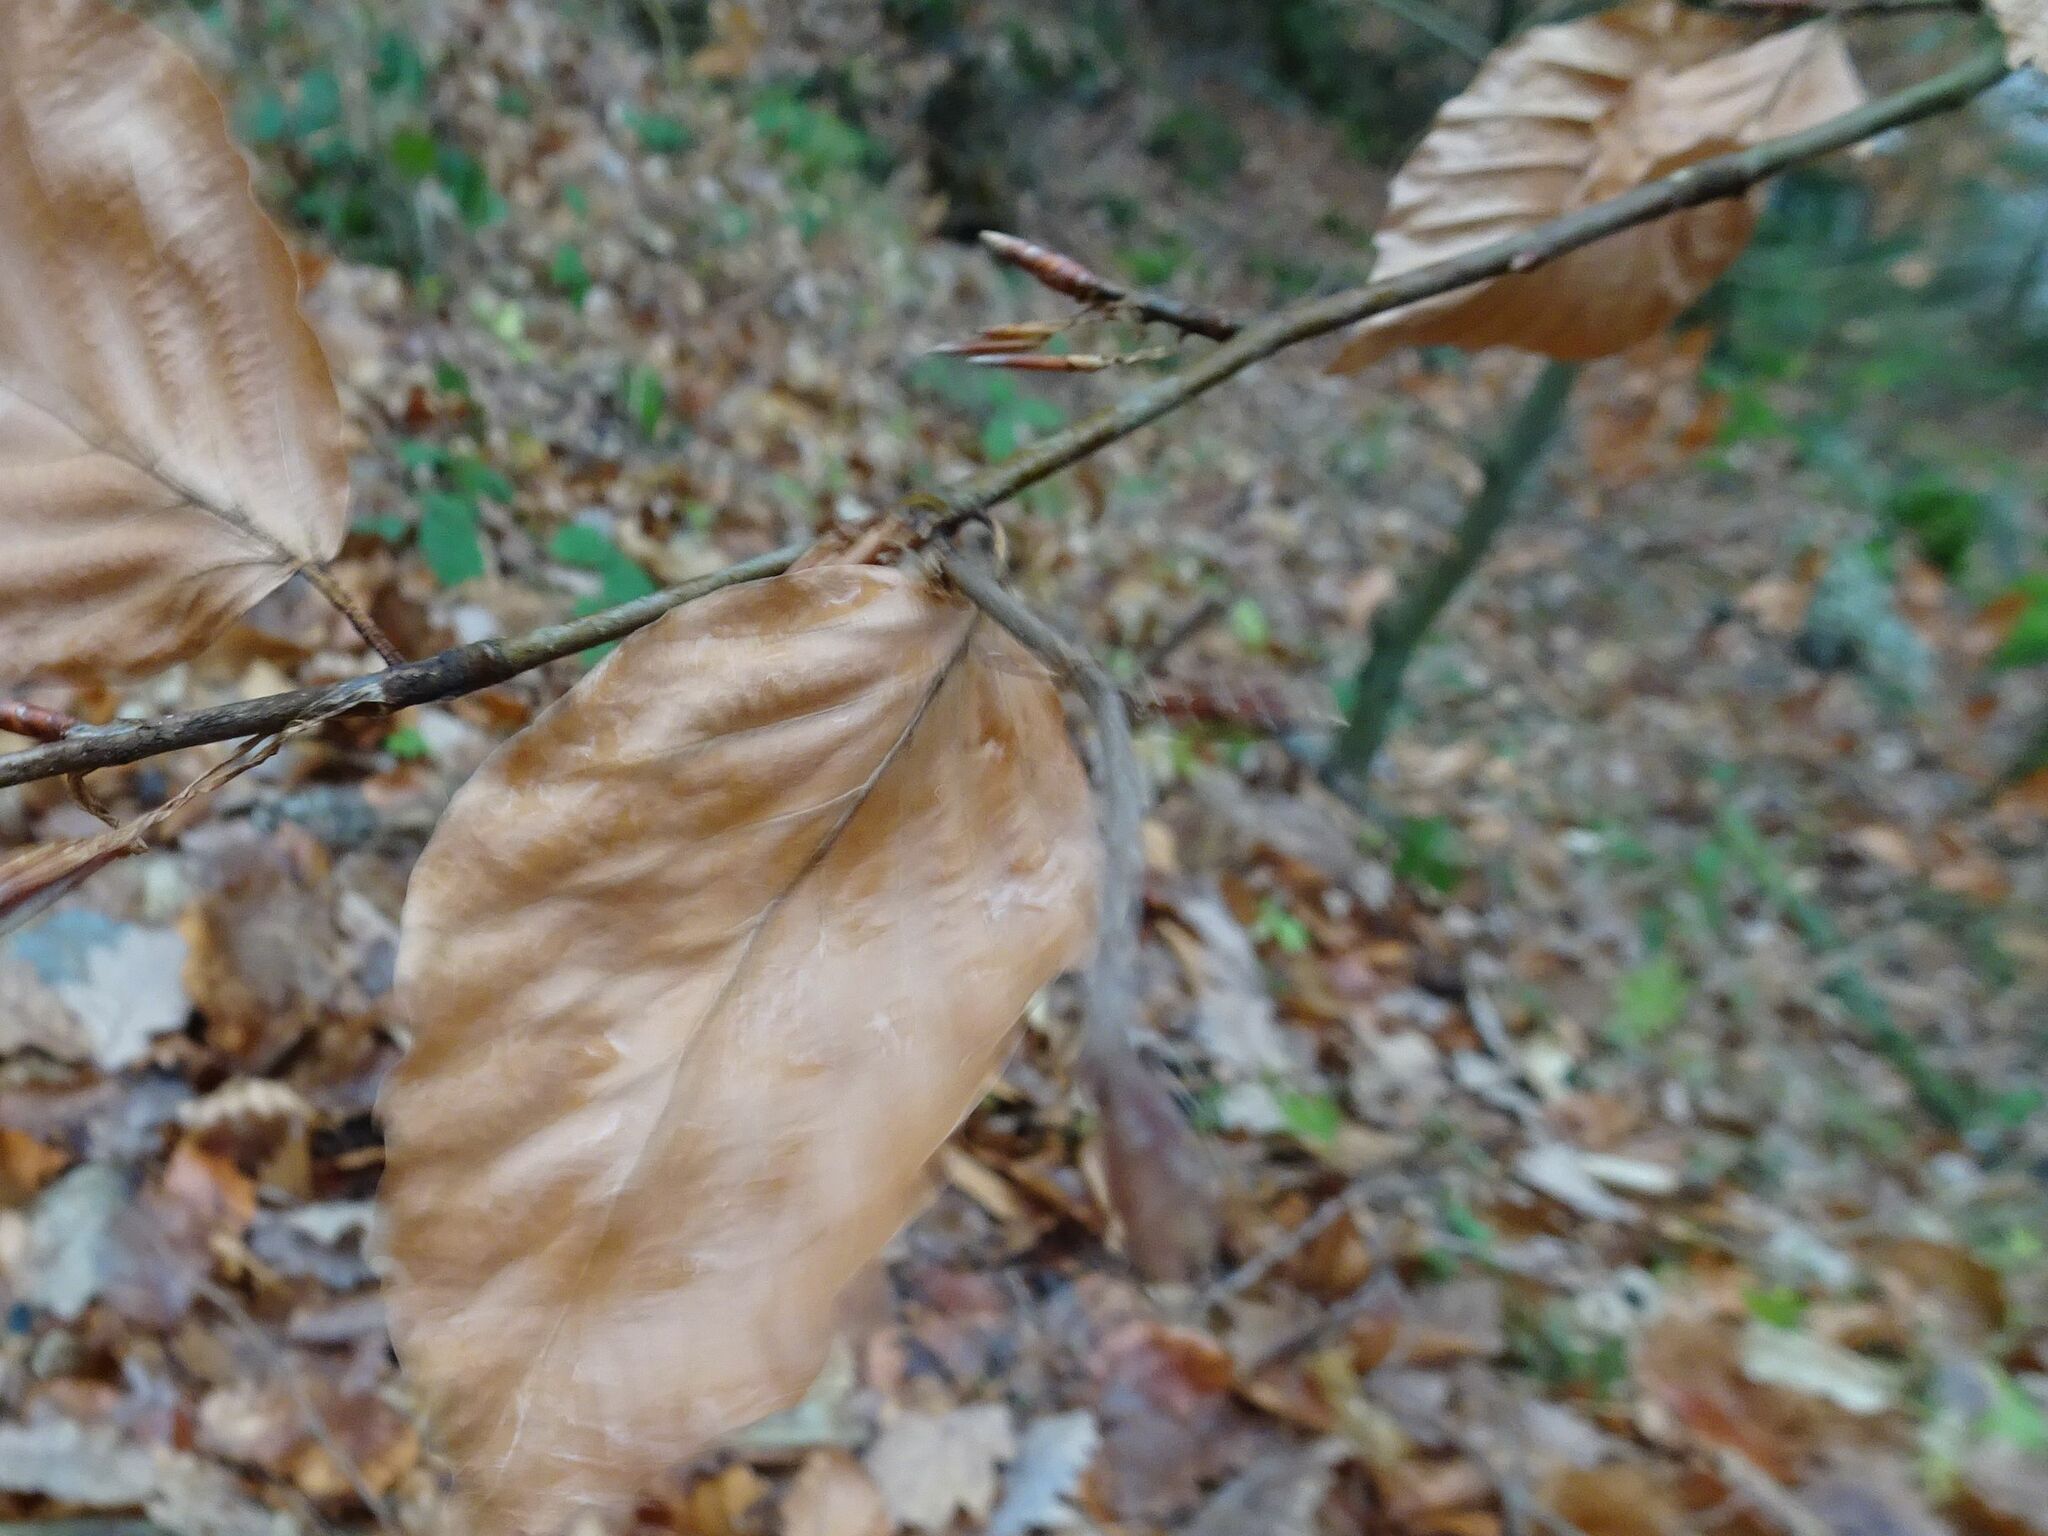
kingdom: Plantae
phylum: Tracheophyta
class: Magnoliopsida
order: Fagales
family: Fagaceae
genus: Fagus
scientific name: Fagus sylvatica
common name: Beech
